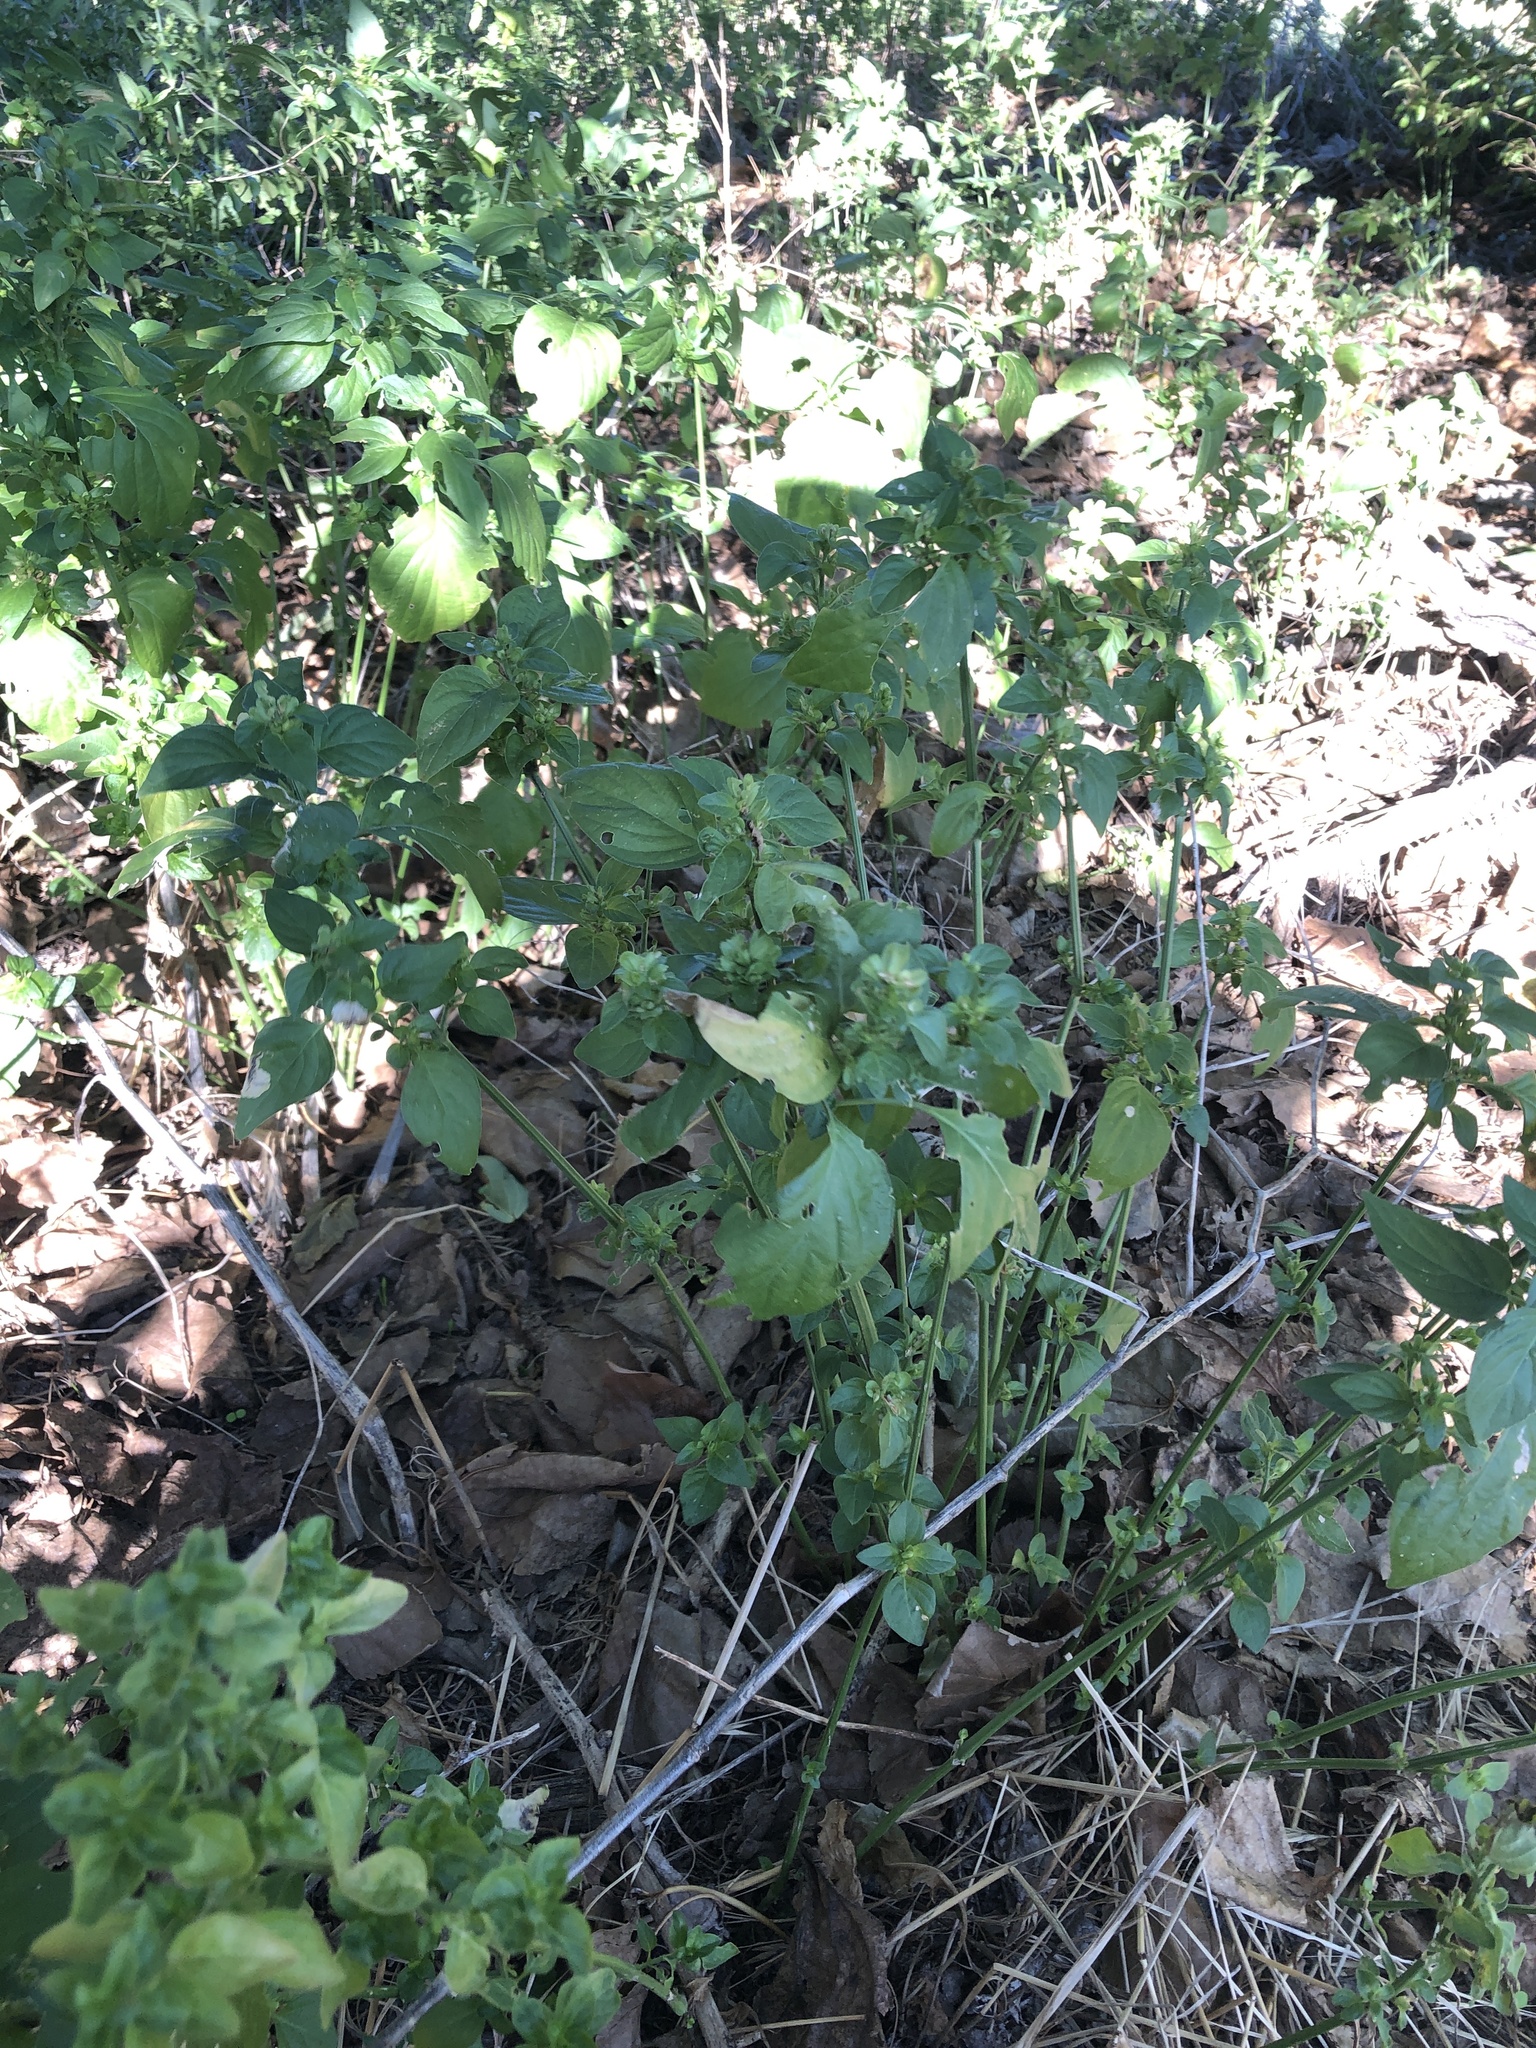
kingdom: Plantae
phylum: Tracheophyta
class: Magnoliopsida
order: Lamiales
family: Acanthaceae
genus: Dicliptera
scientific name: Dicliptera brachiata
